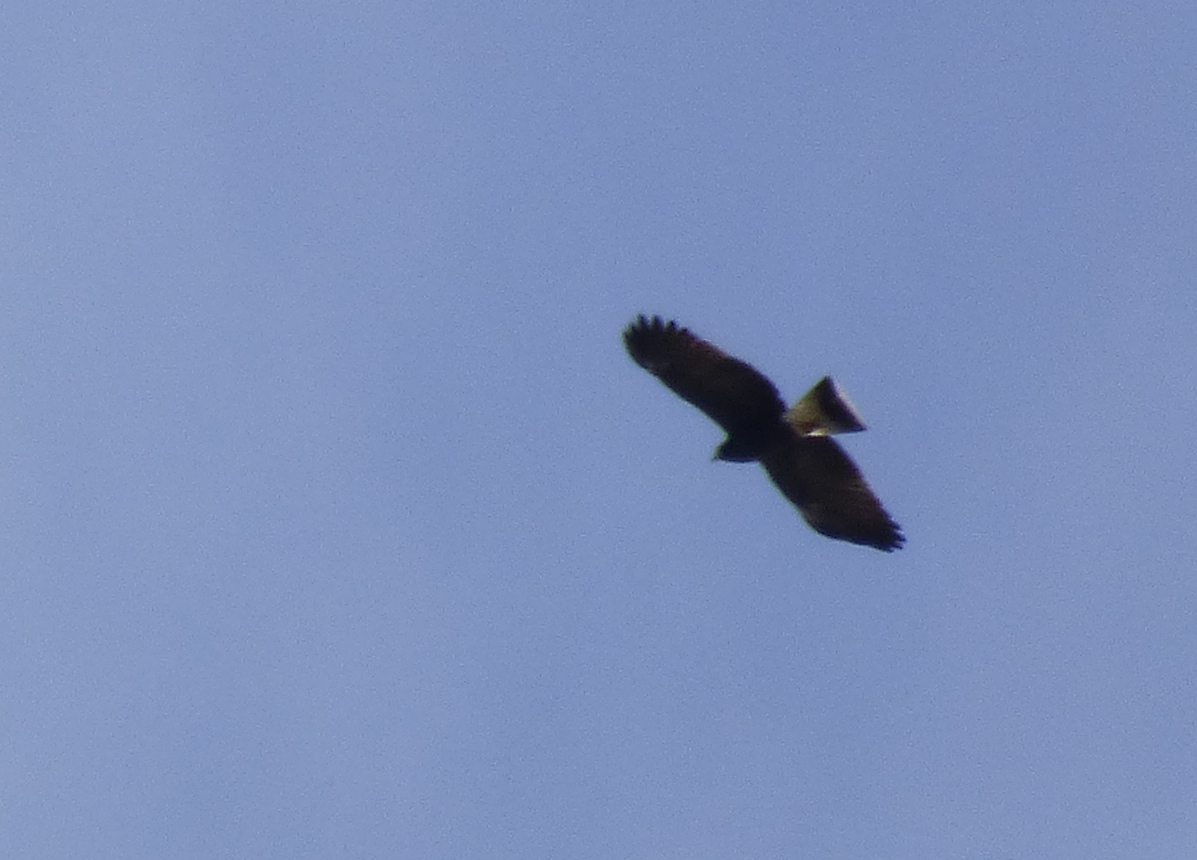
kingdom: Animalia
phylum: Chordata
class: Aves
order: Accipitriformes
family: Accipitridae
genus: Rostrhamus
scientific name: Rostrhamus sociabilis
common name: Snail kite
